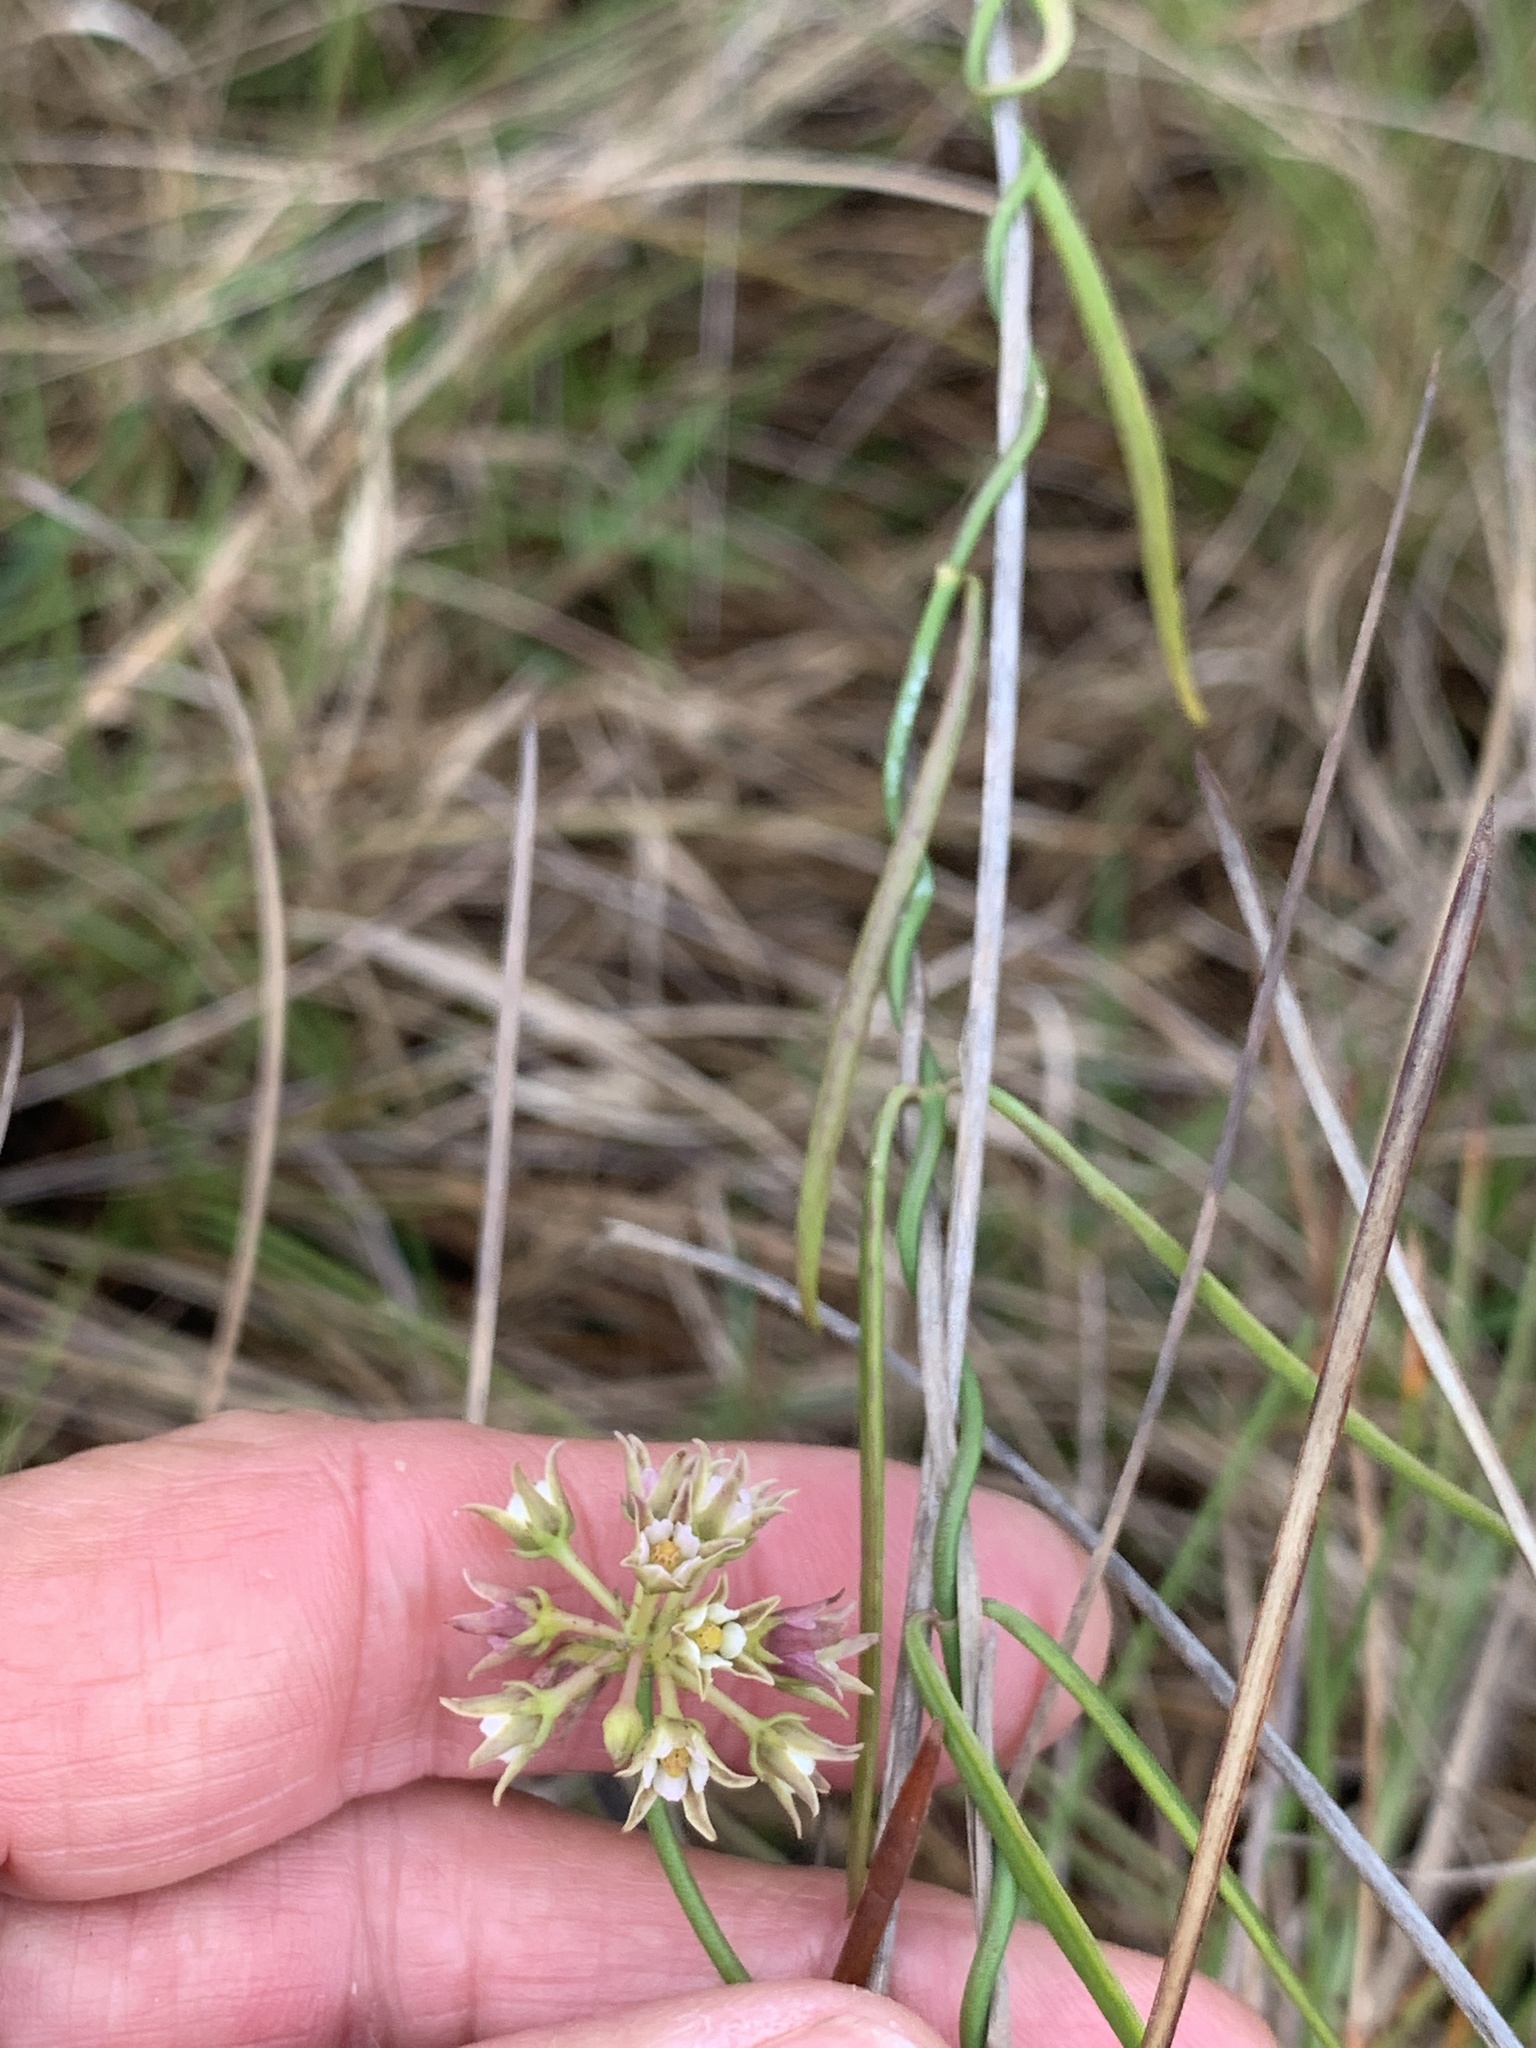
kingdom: Plantae
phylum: Tracheophyta
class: Magnoliopsida
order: Gentianales
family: Apocynaceae
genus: Pattalias
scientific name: Pattalias
